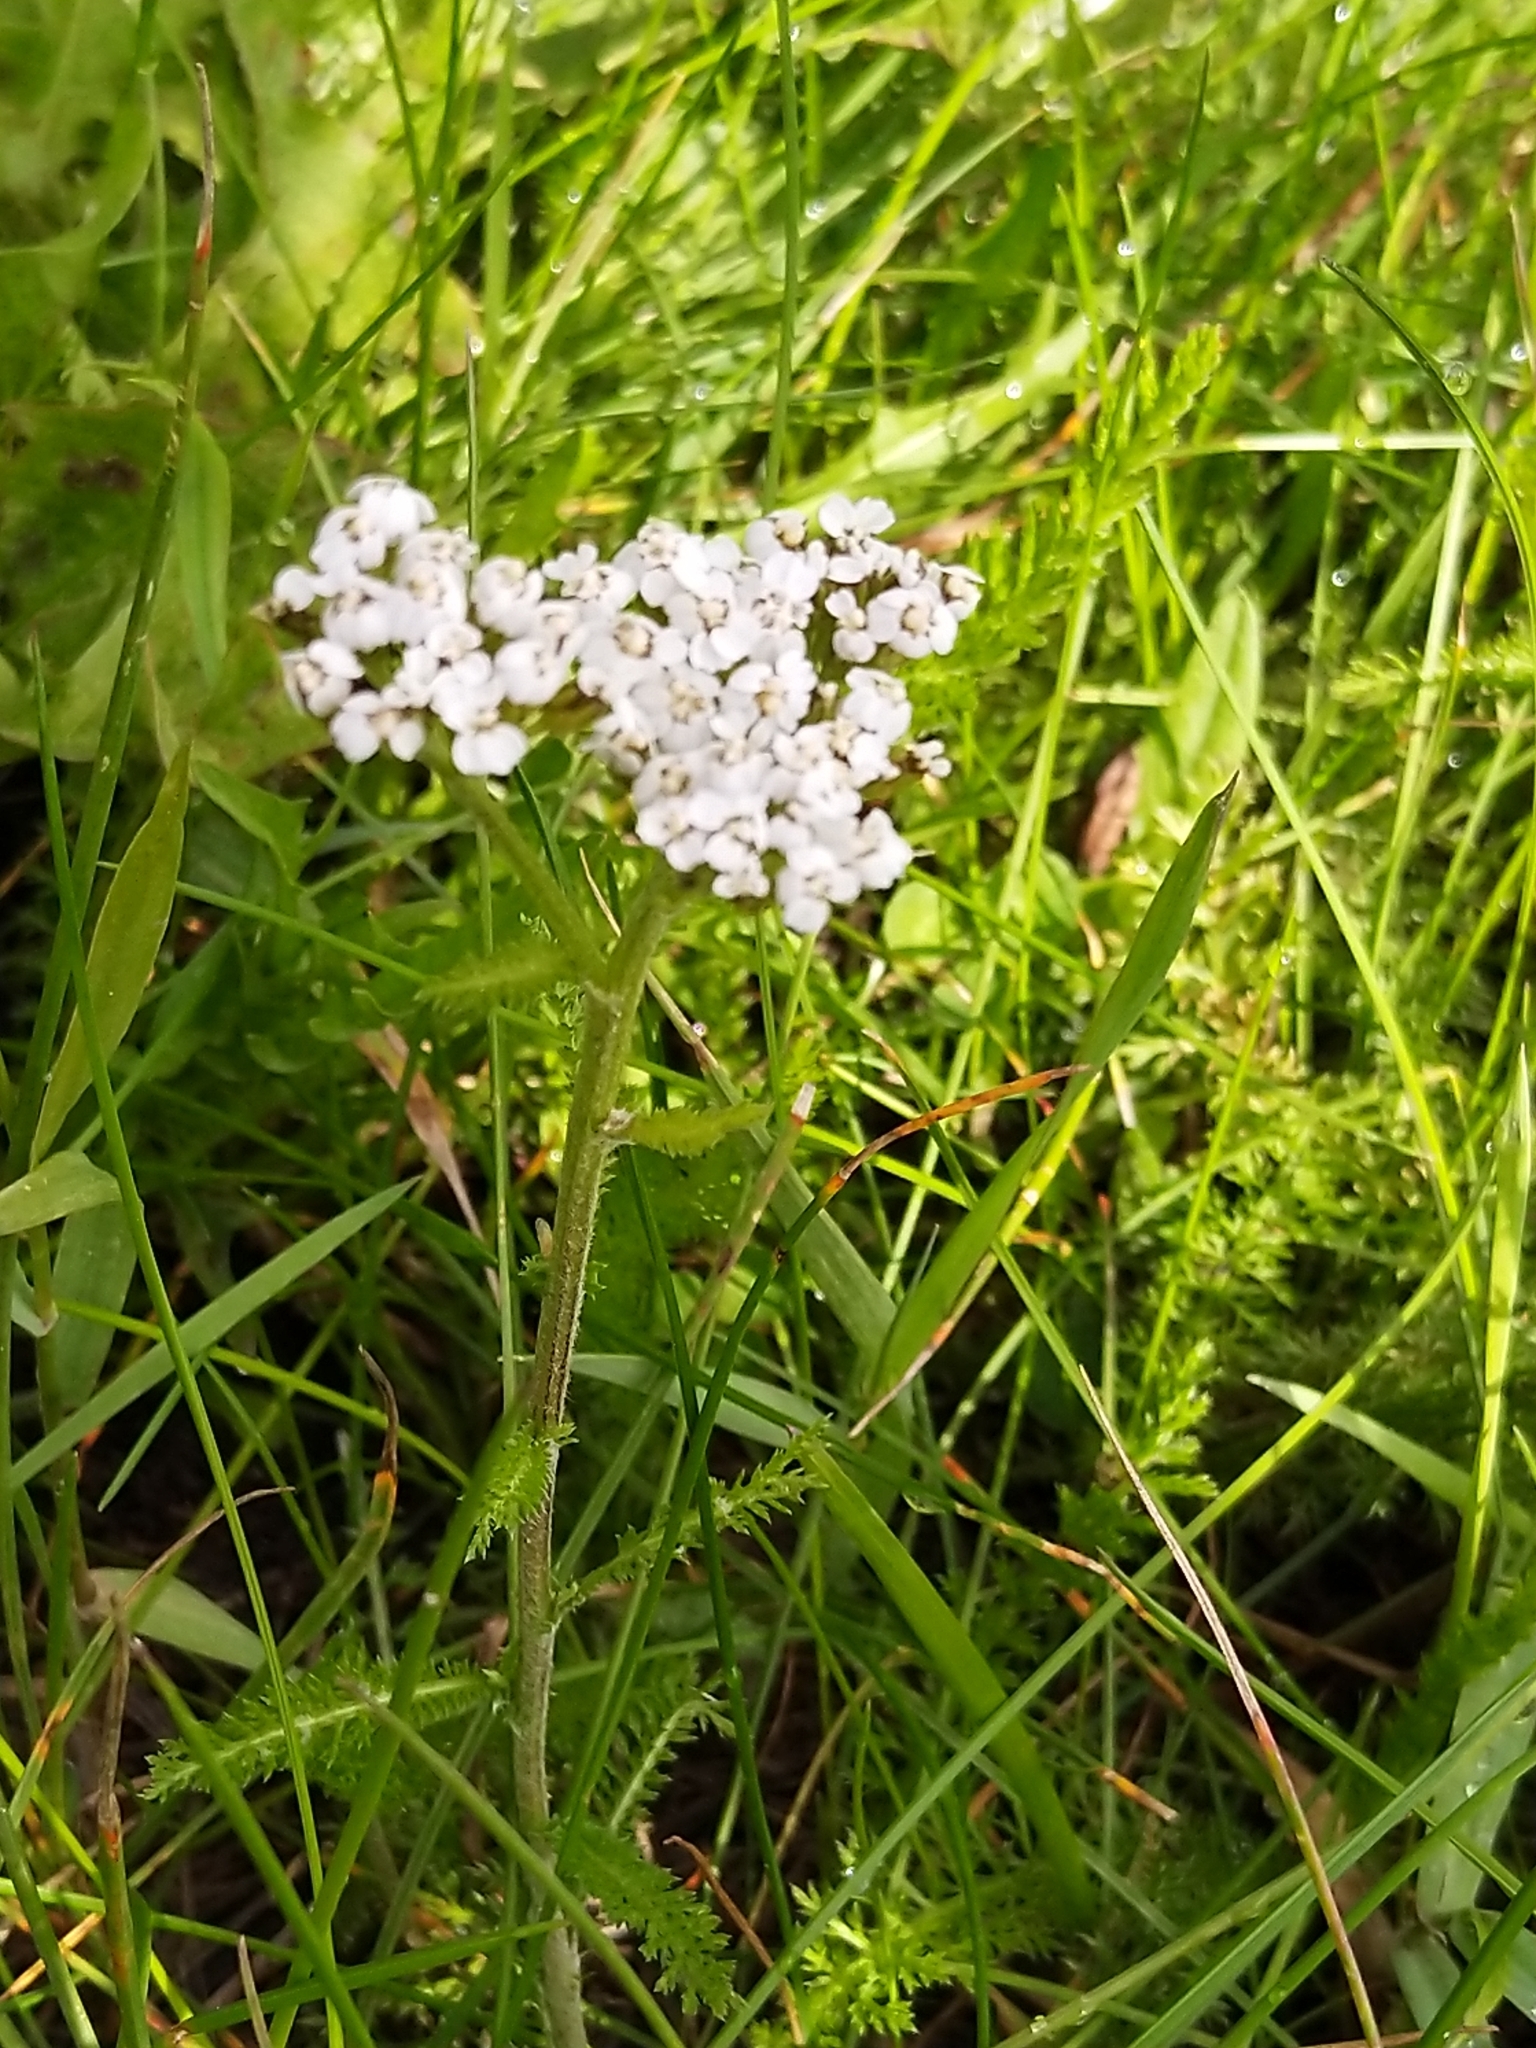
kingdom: Plantae
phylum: Tracheophyta
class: Magnoliopsida
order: Asterales
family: Asteraceae
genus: Achillea
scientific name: Achillea millefolium
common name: Yarrow
